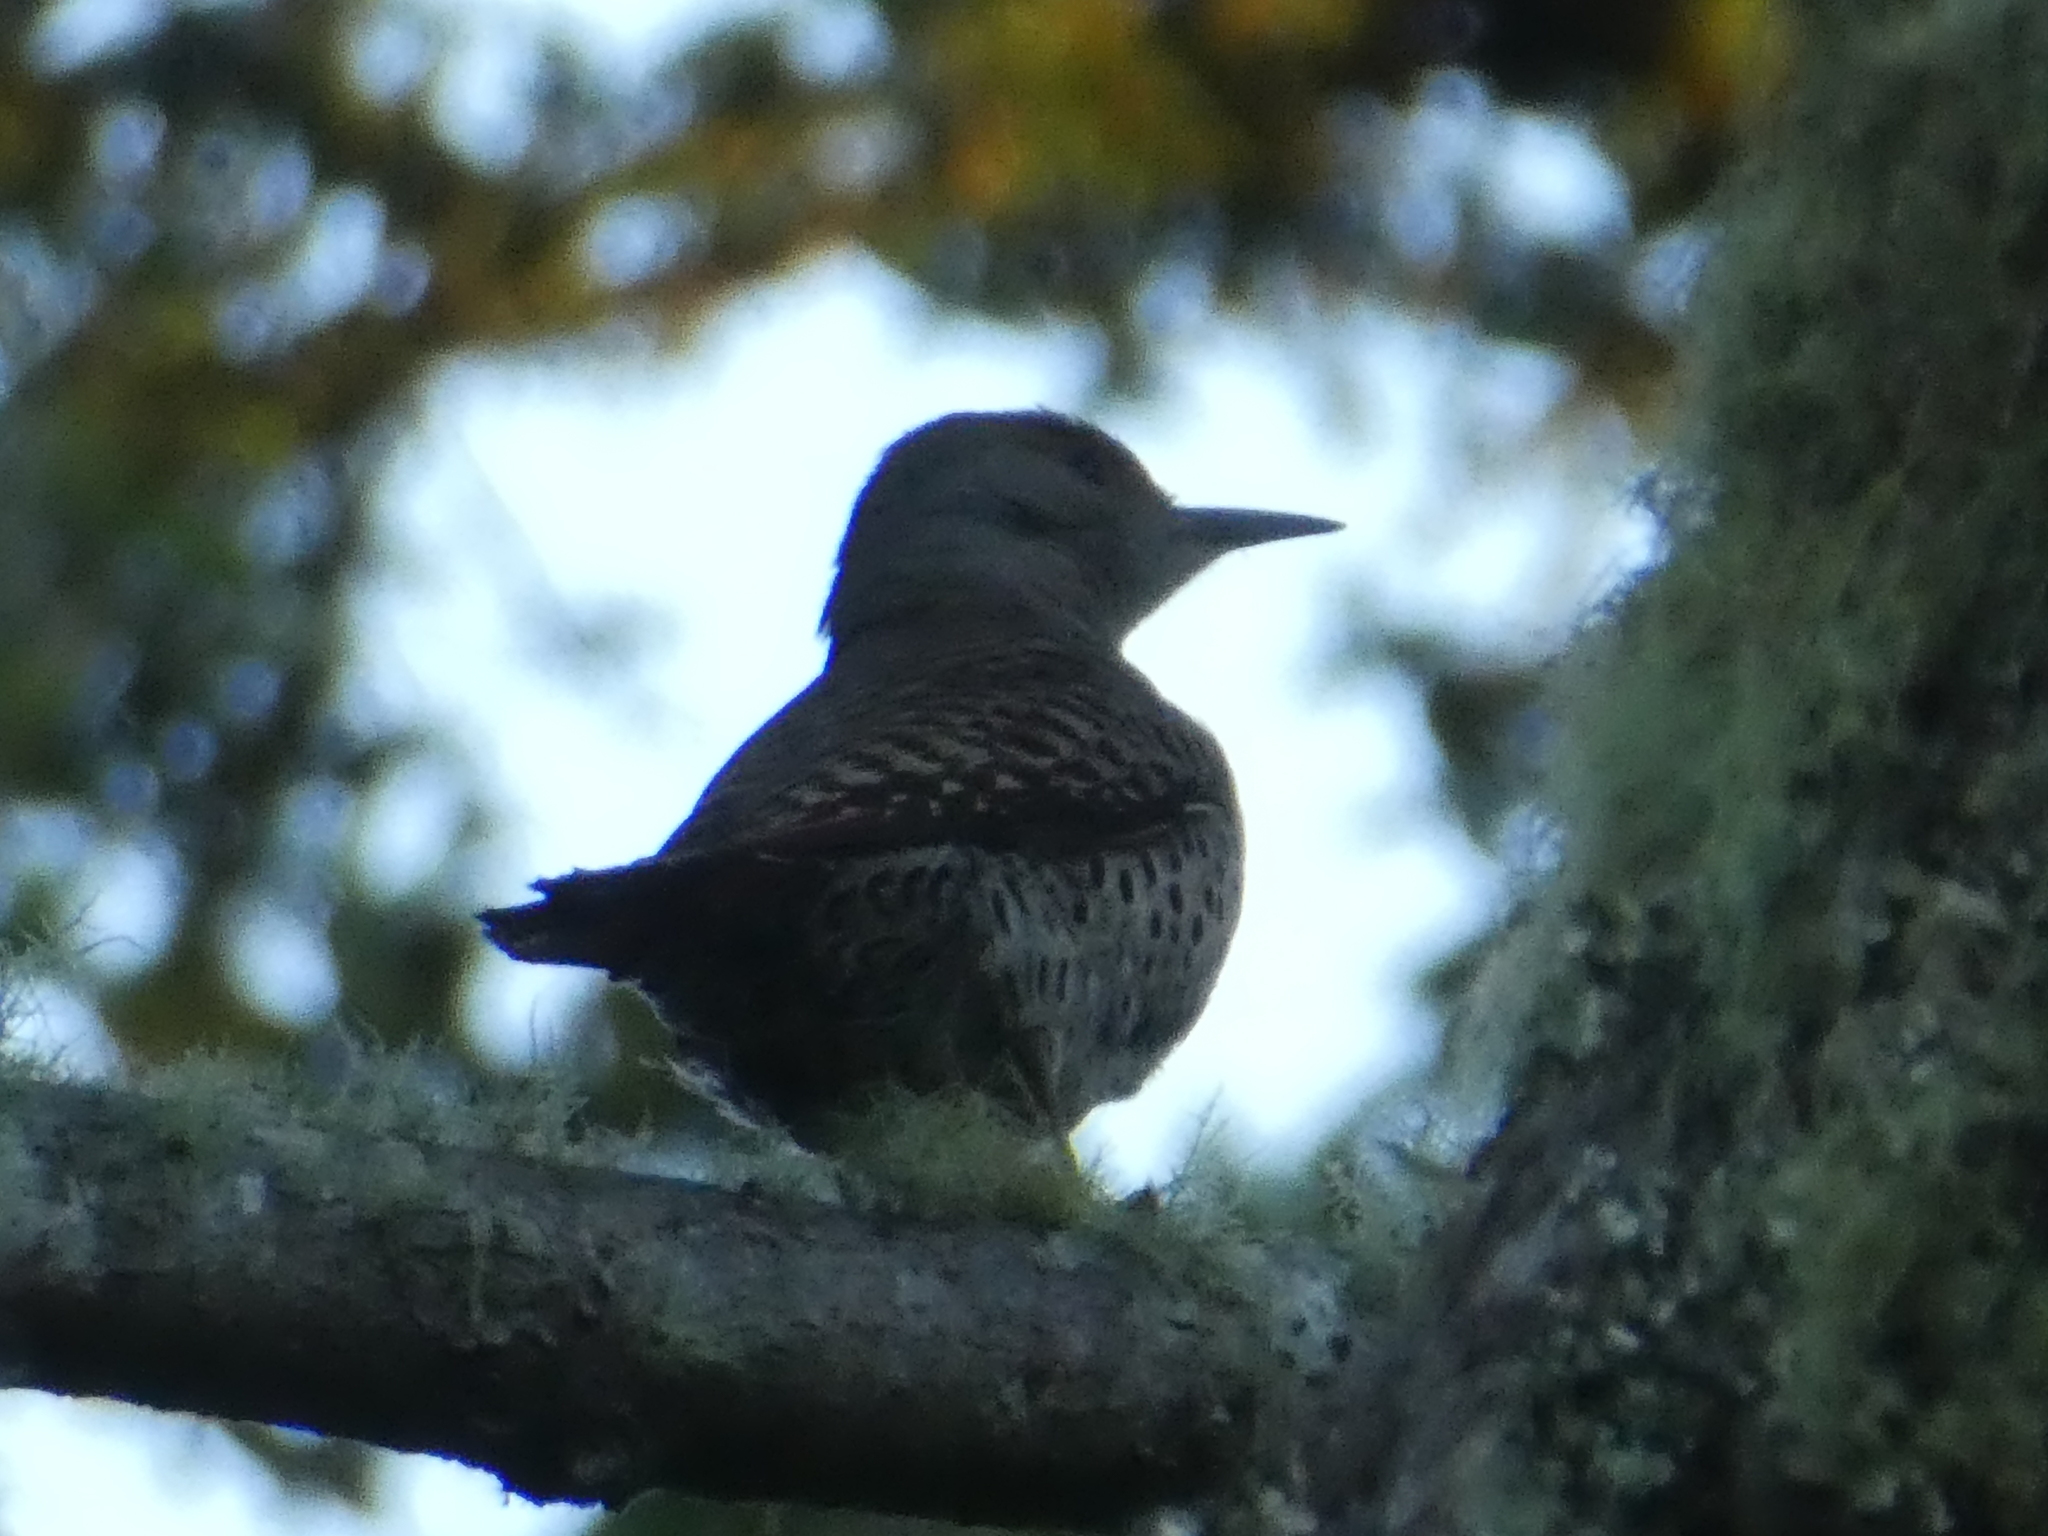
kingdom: Animalia
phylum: Chordata
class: Aves
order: Piciformes
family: Picidae
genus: Colaptes
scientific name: Colaptes auratus
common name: Northern flicker
